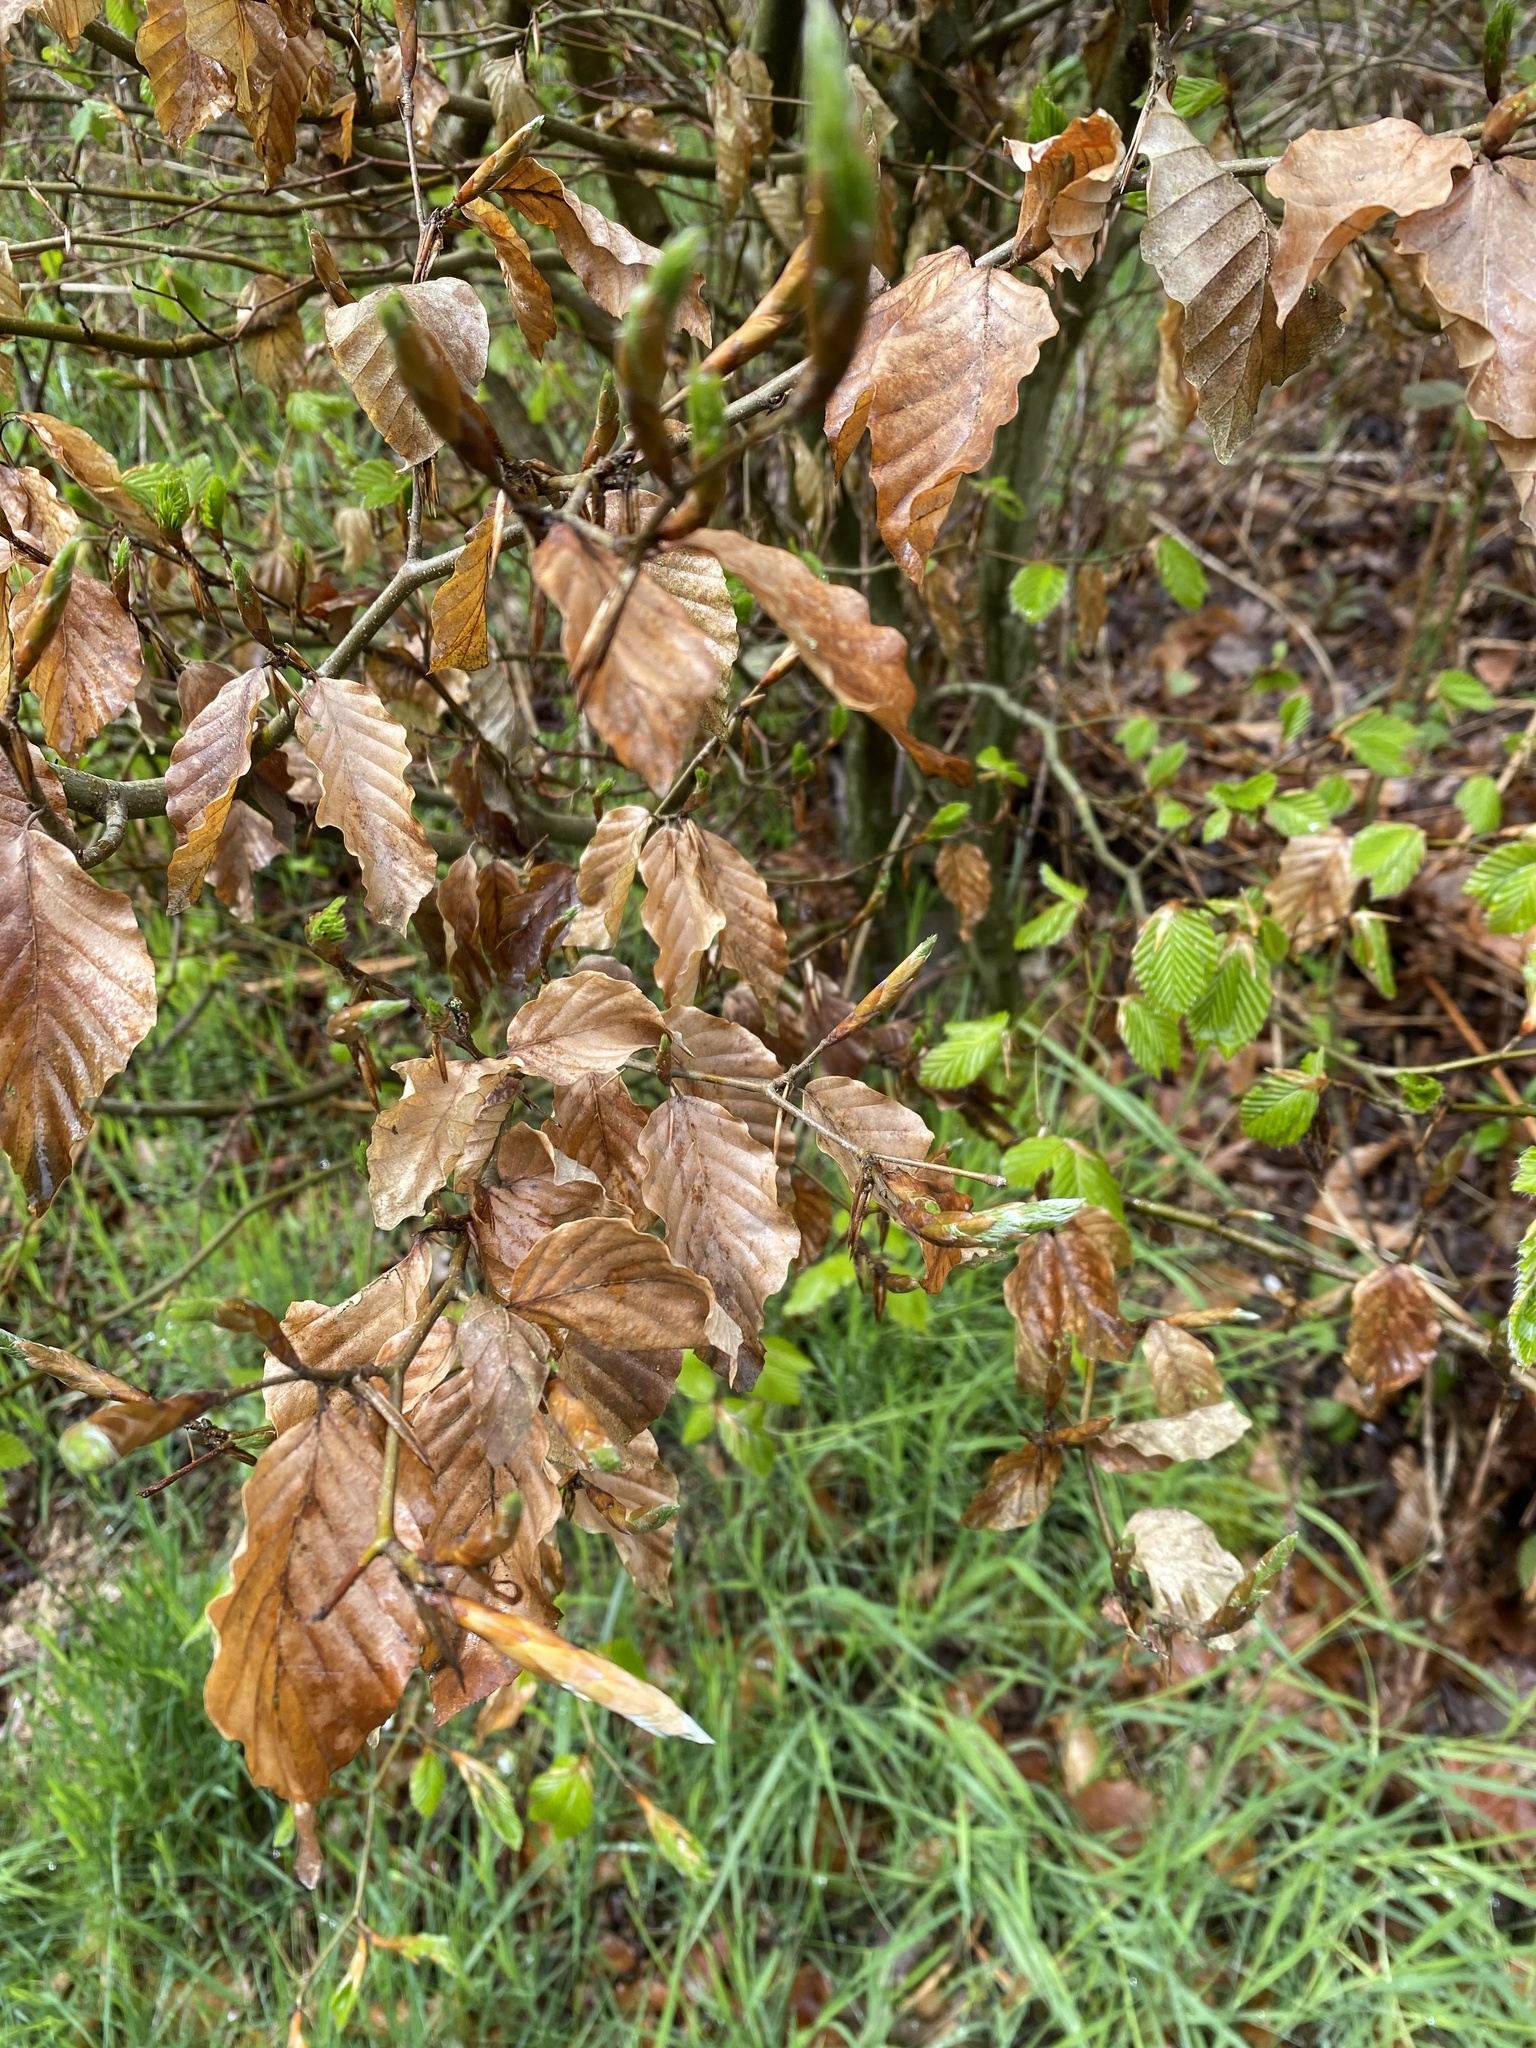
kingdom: Plantae
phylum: Tracheophyta
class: Magnoliopsida
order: Fagales
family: Fagaceae
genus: Fagus
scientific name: Fagus sylvatica
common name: Beech
